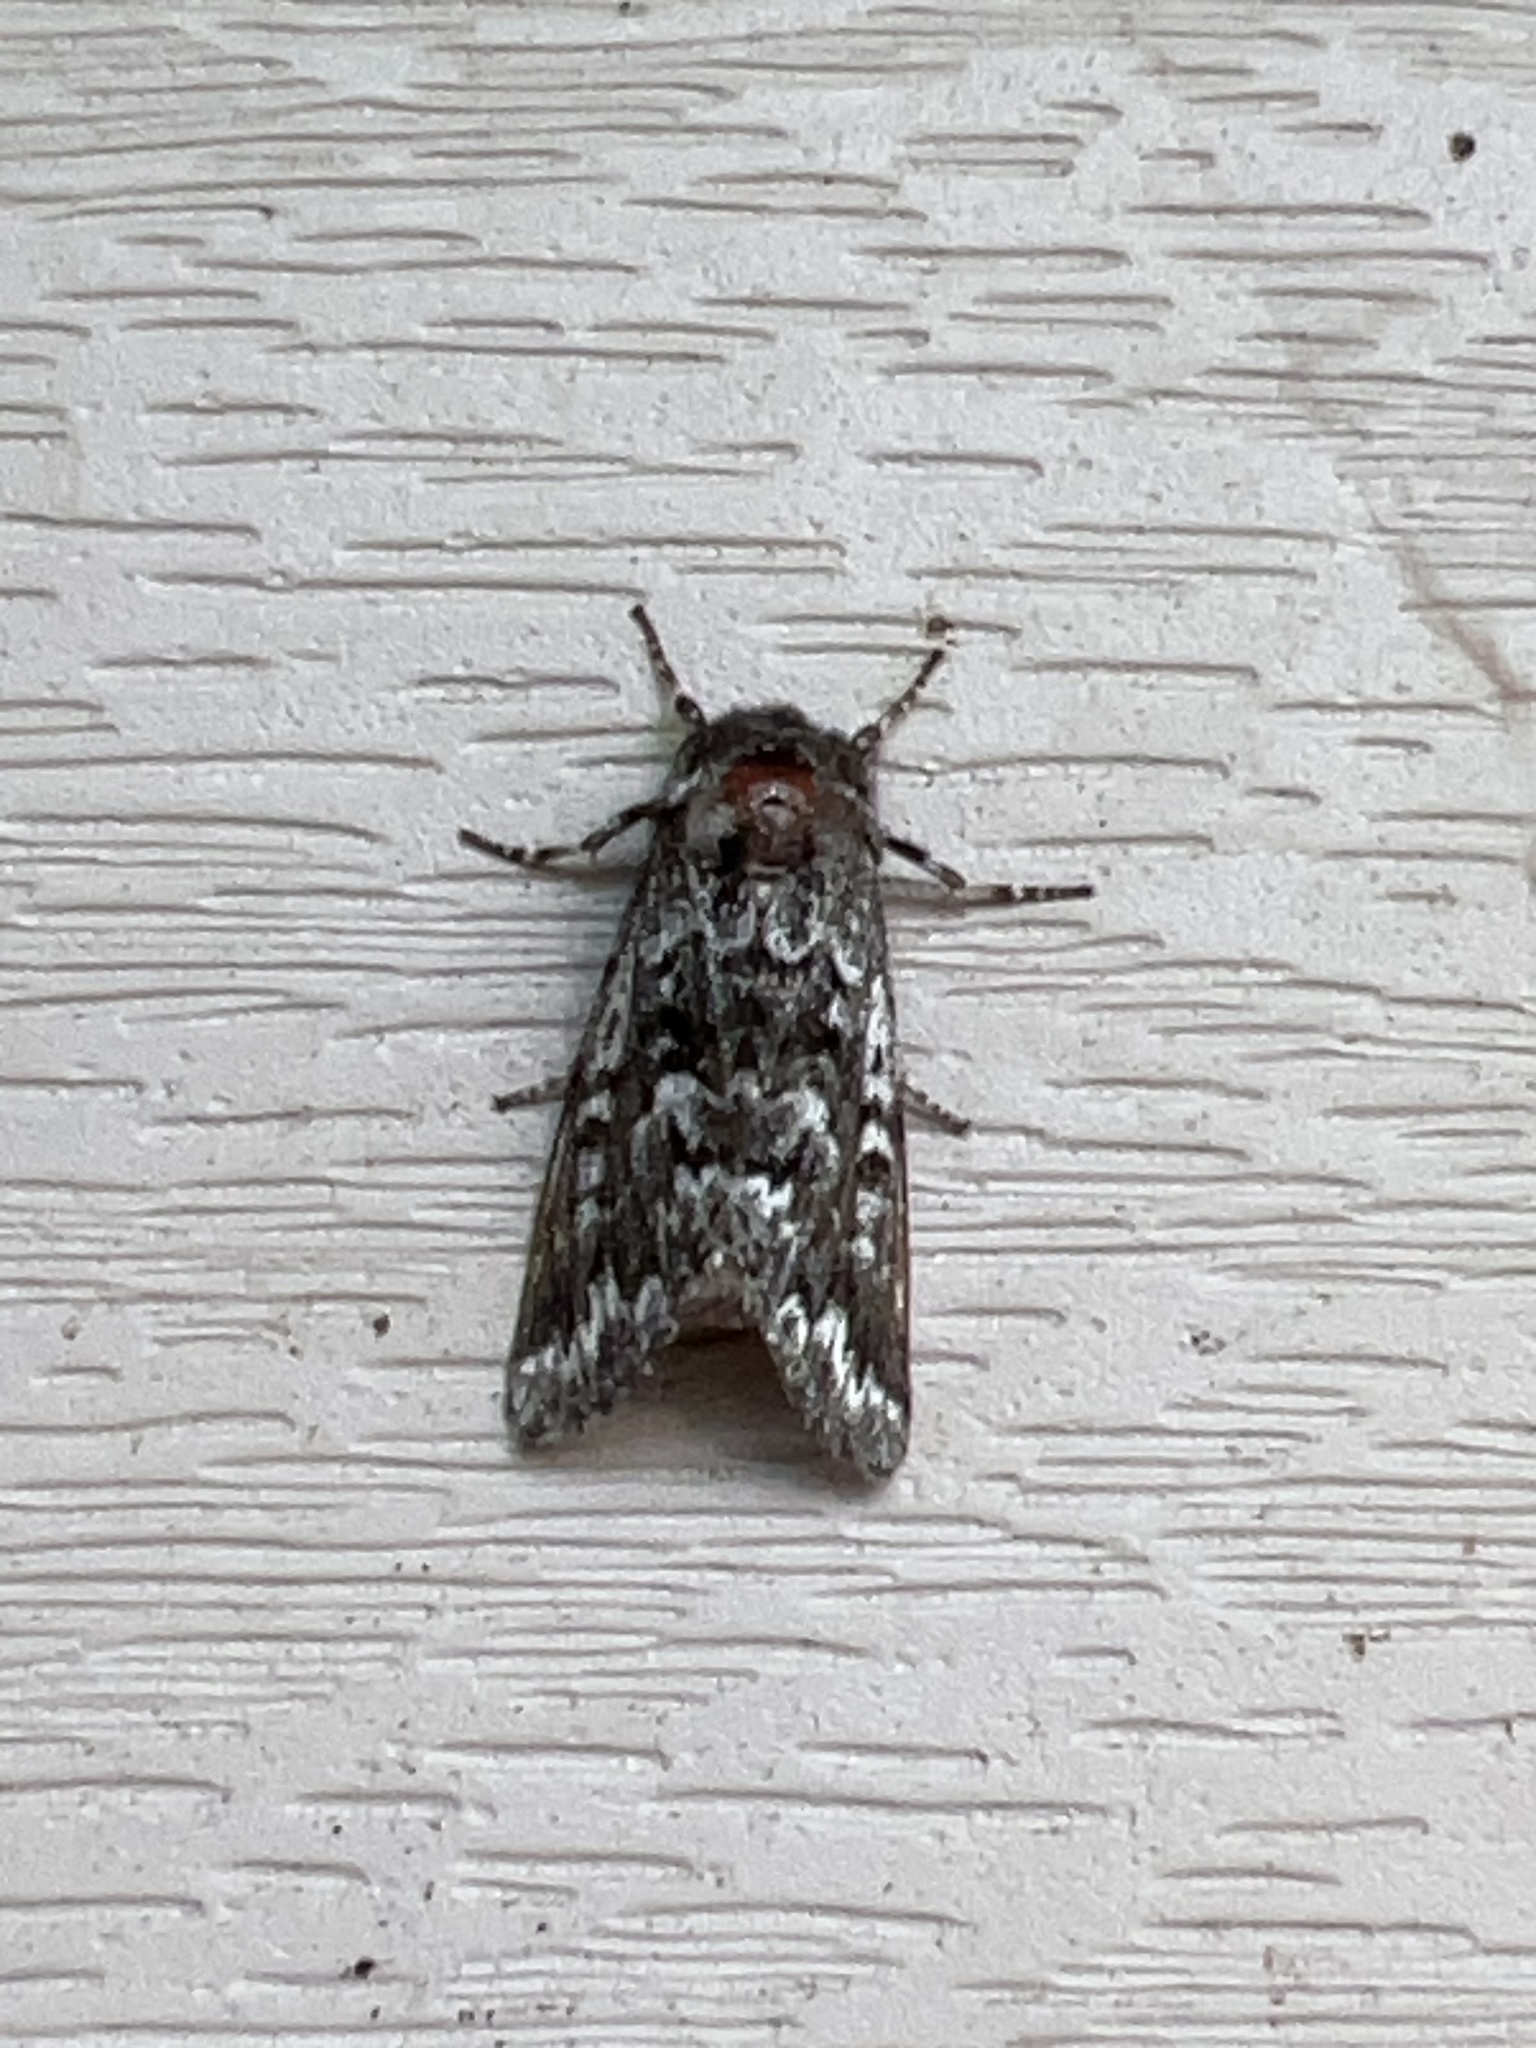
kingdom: Animalia
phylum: Arthropoda
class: Insecta
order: Lepidoptera
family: Noctuidae
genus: Panthea
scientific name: Panthea acronyctoides
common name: Black zigzag moth
